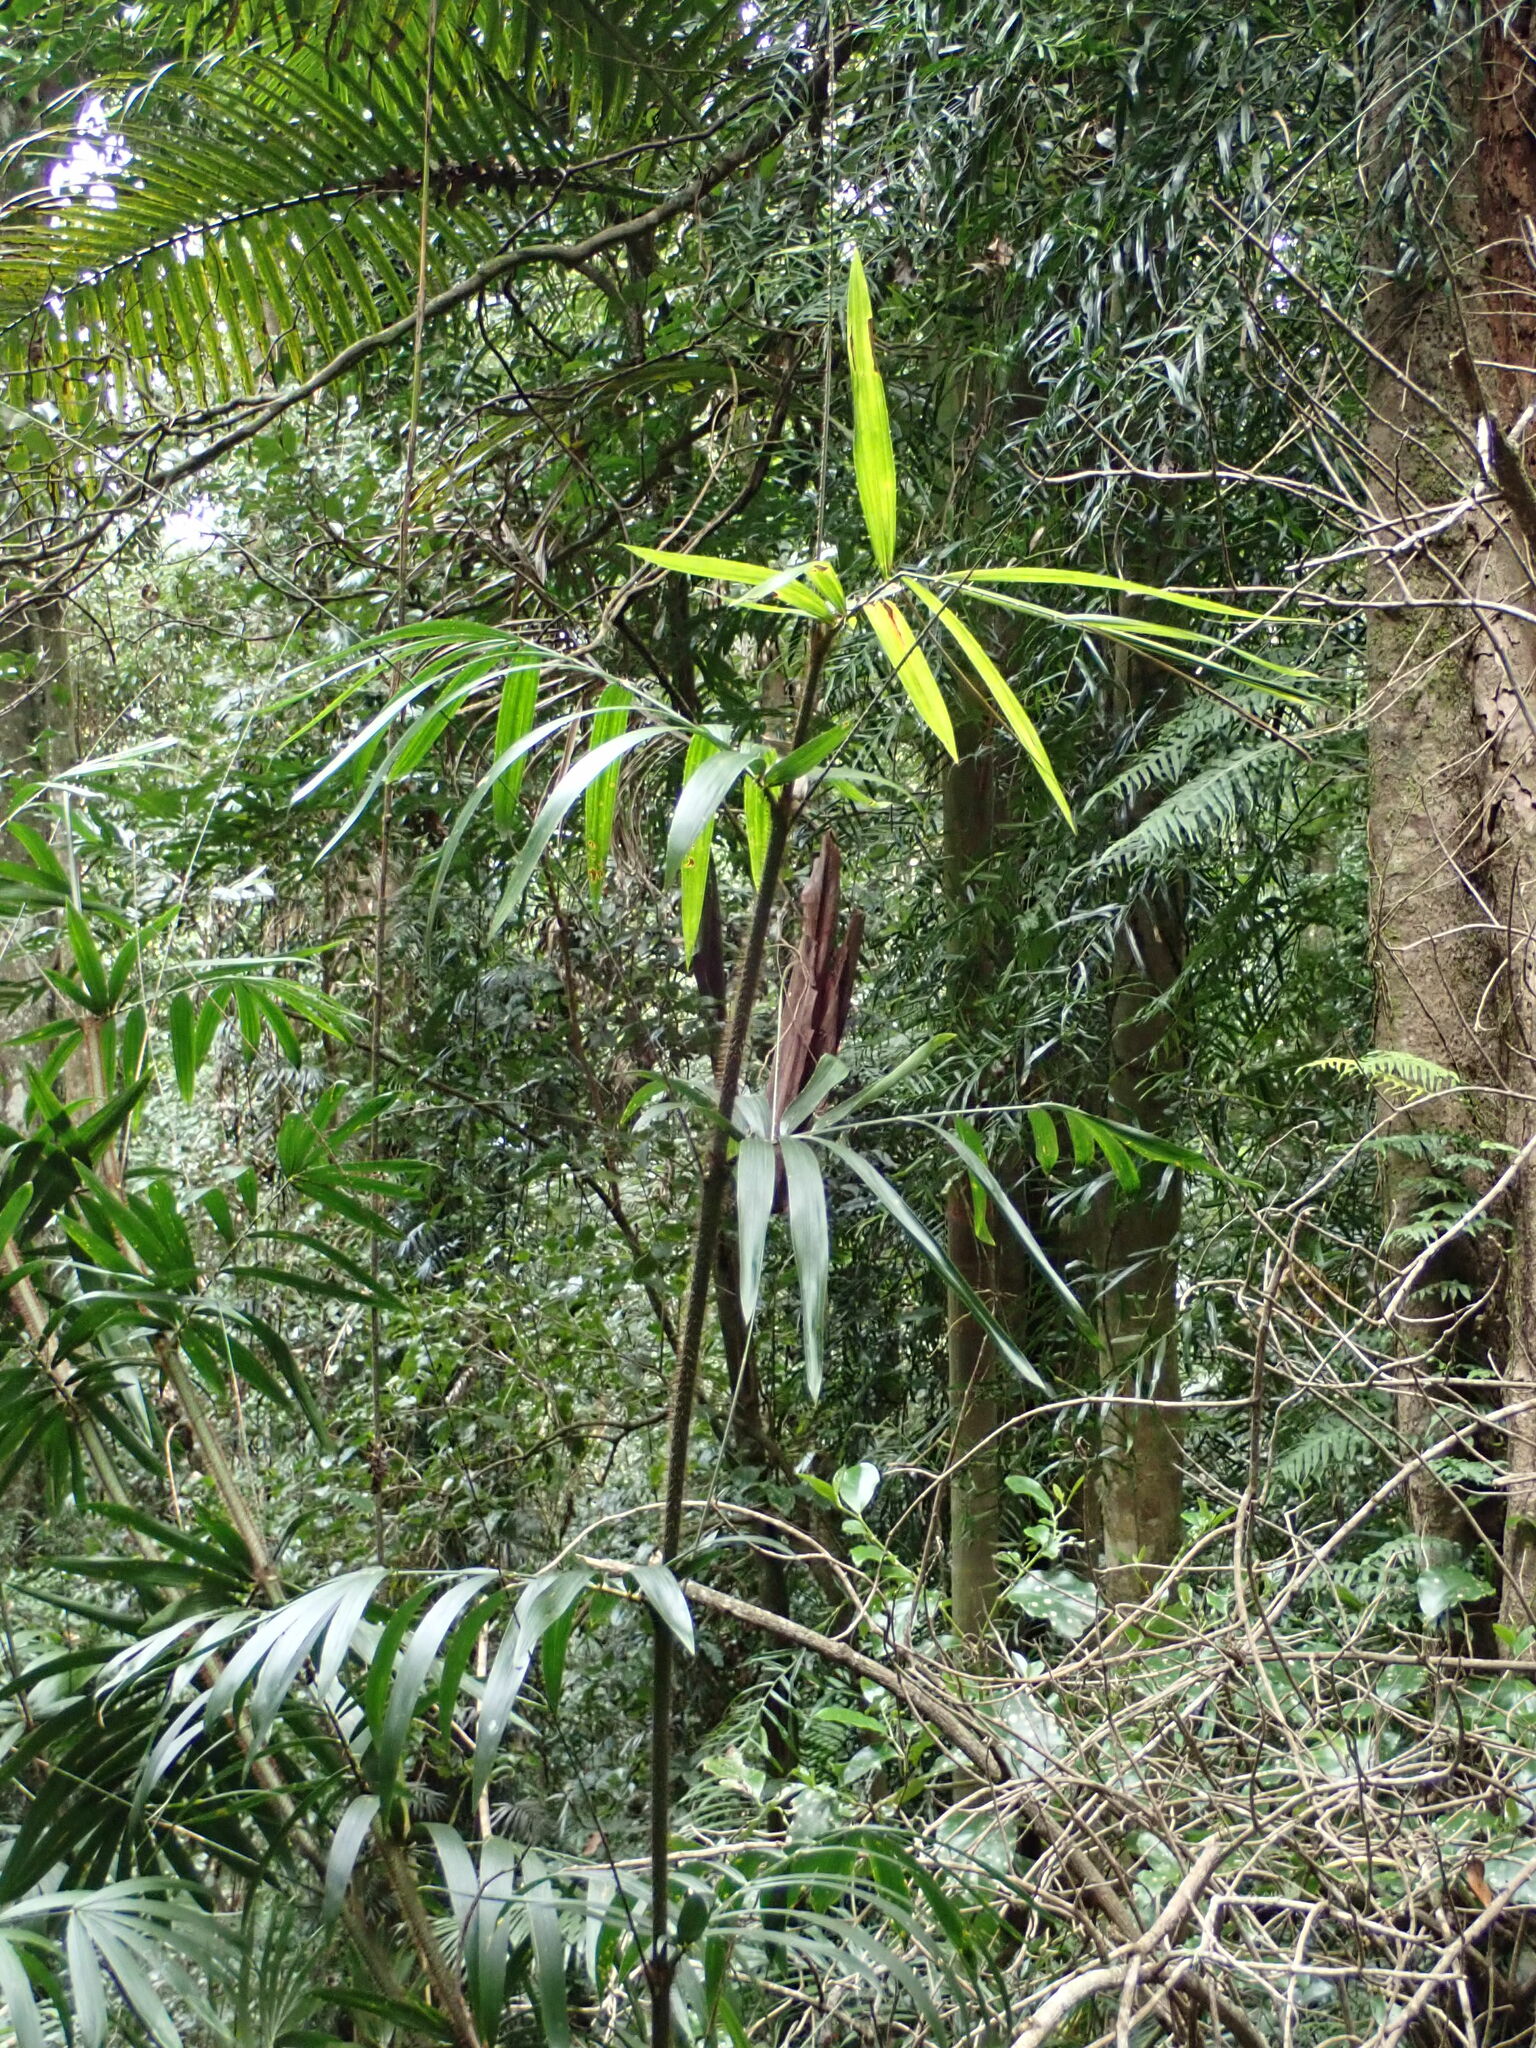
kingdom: Plantae
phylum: Tracheophyta
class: Liliopsida
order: Arecales
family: Arecaceae
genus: Calamus
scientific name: Calamus muelleri
